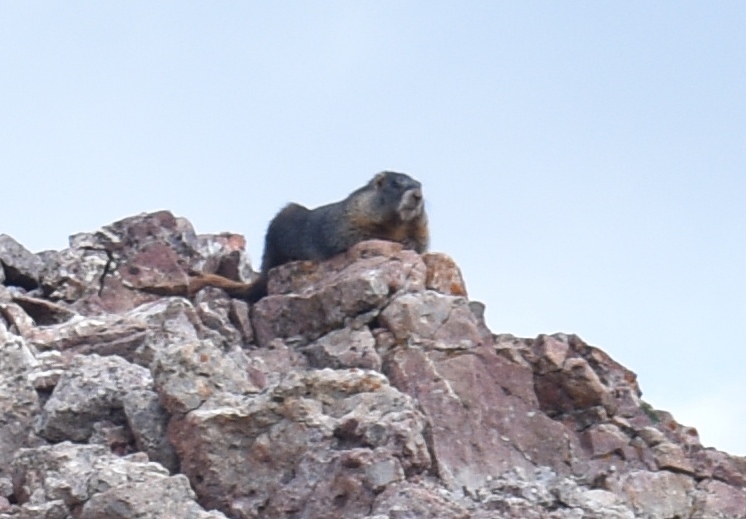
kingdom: Animalia
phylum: Chordata
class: Mammalia
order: Rodentia
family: Sciuridae
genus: Marmota
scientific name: Marmota flaviventris
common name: Yellow-bellied marmot
